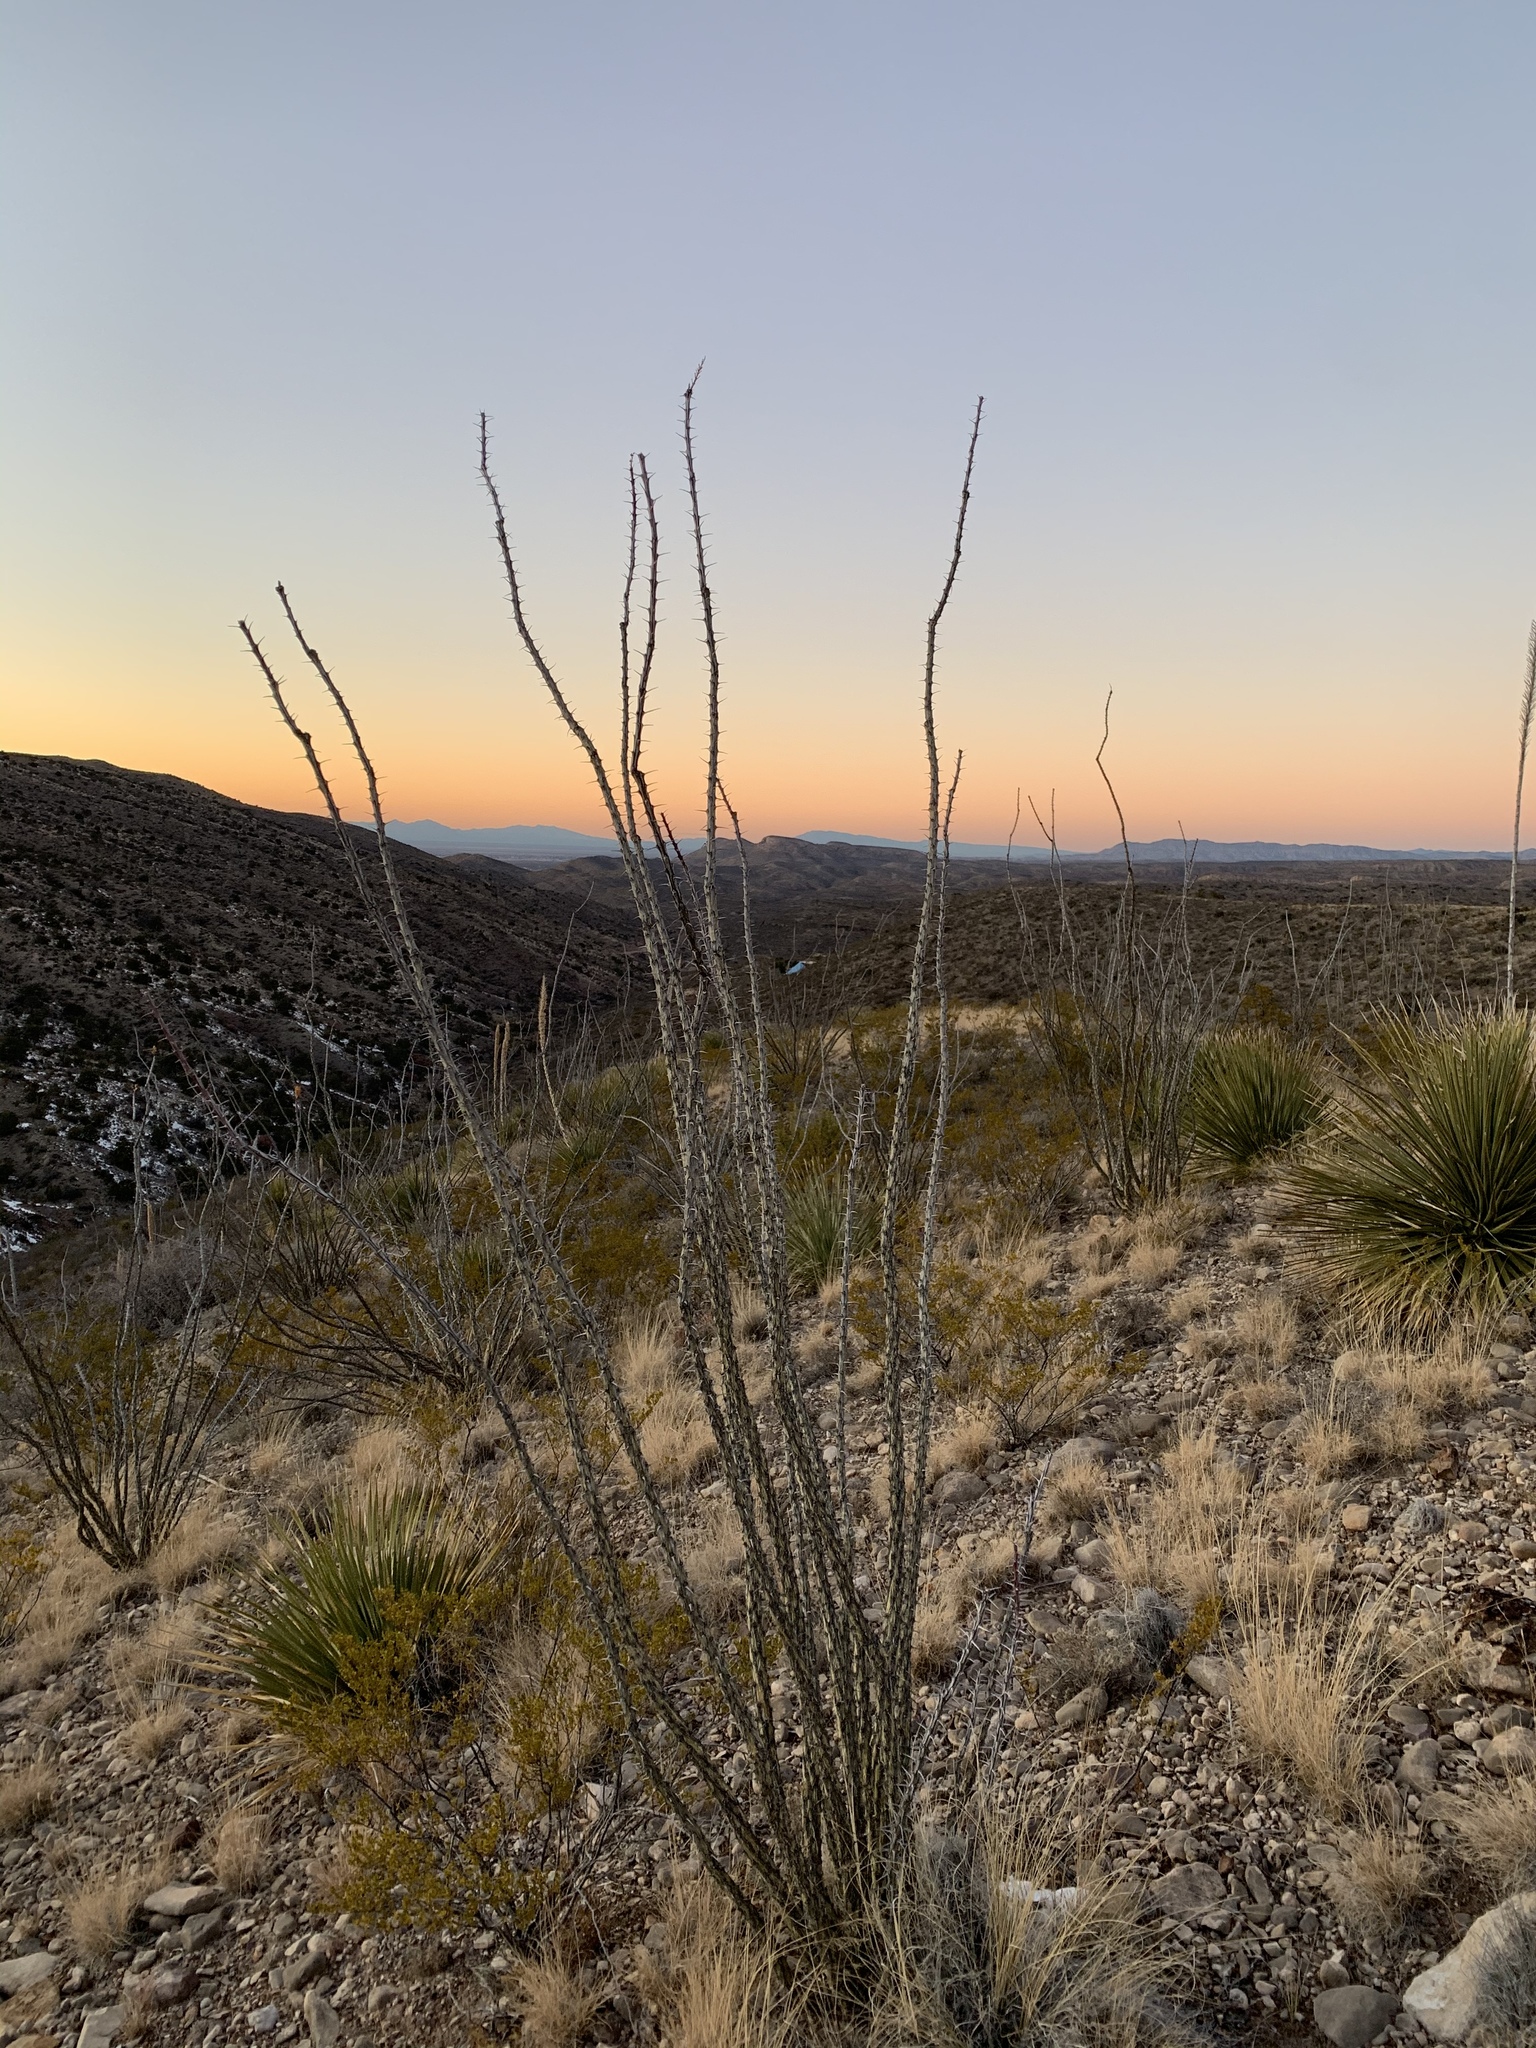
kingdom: Plantae
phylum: Tracheophyta
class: Magnoliopsida
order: Ericales
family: Fouquieriaceae
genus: Fouquieria
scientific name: Fouquieria splendens
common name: Vine-cactus
